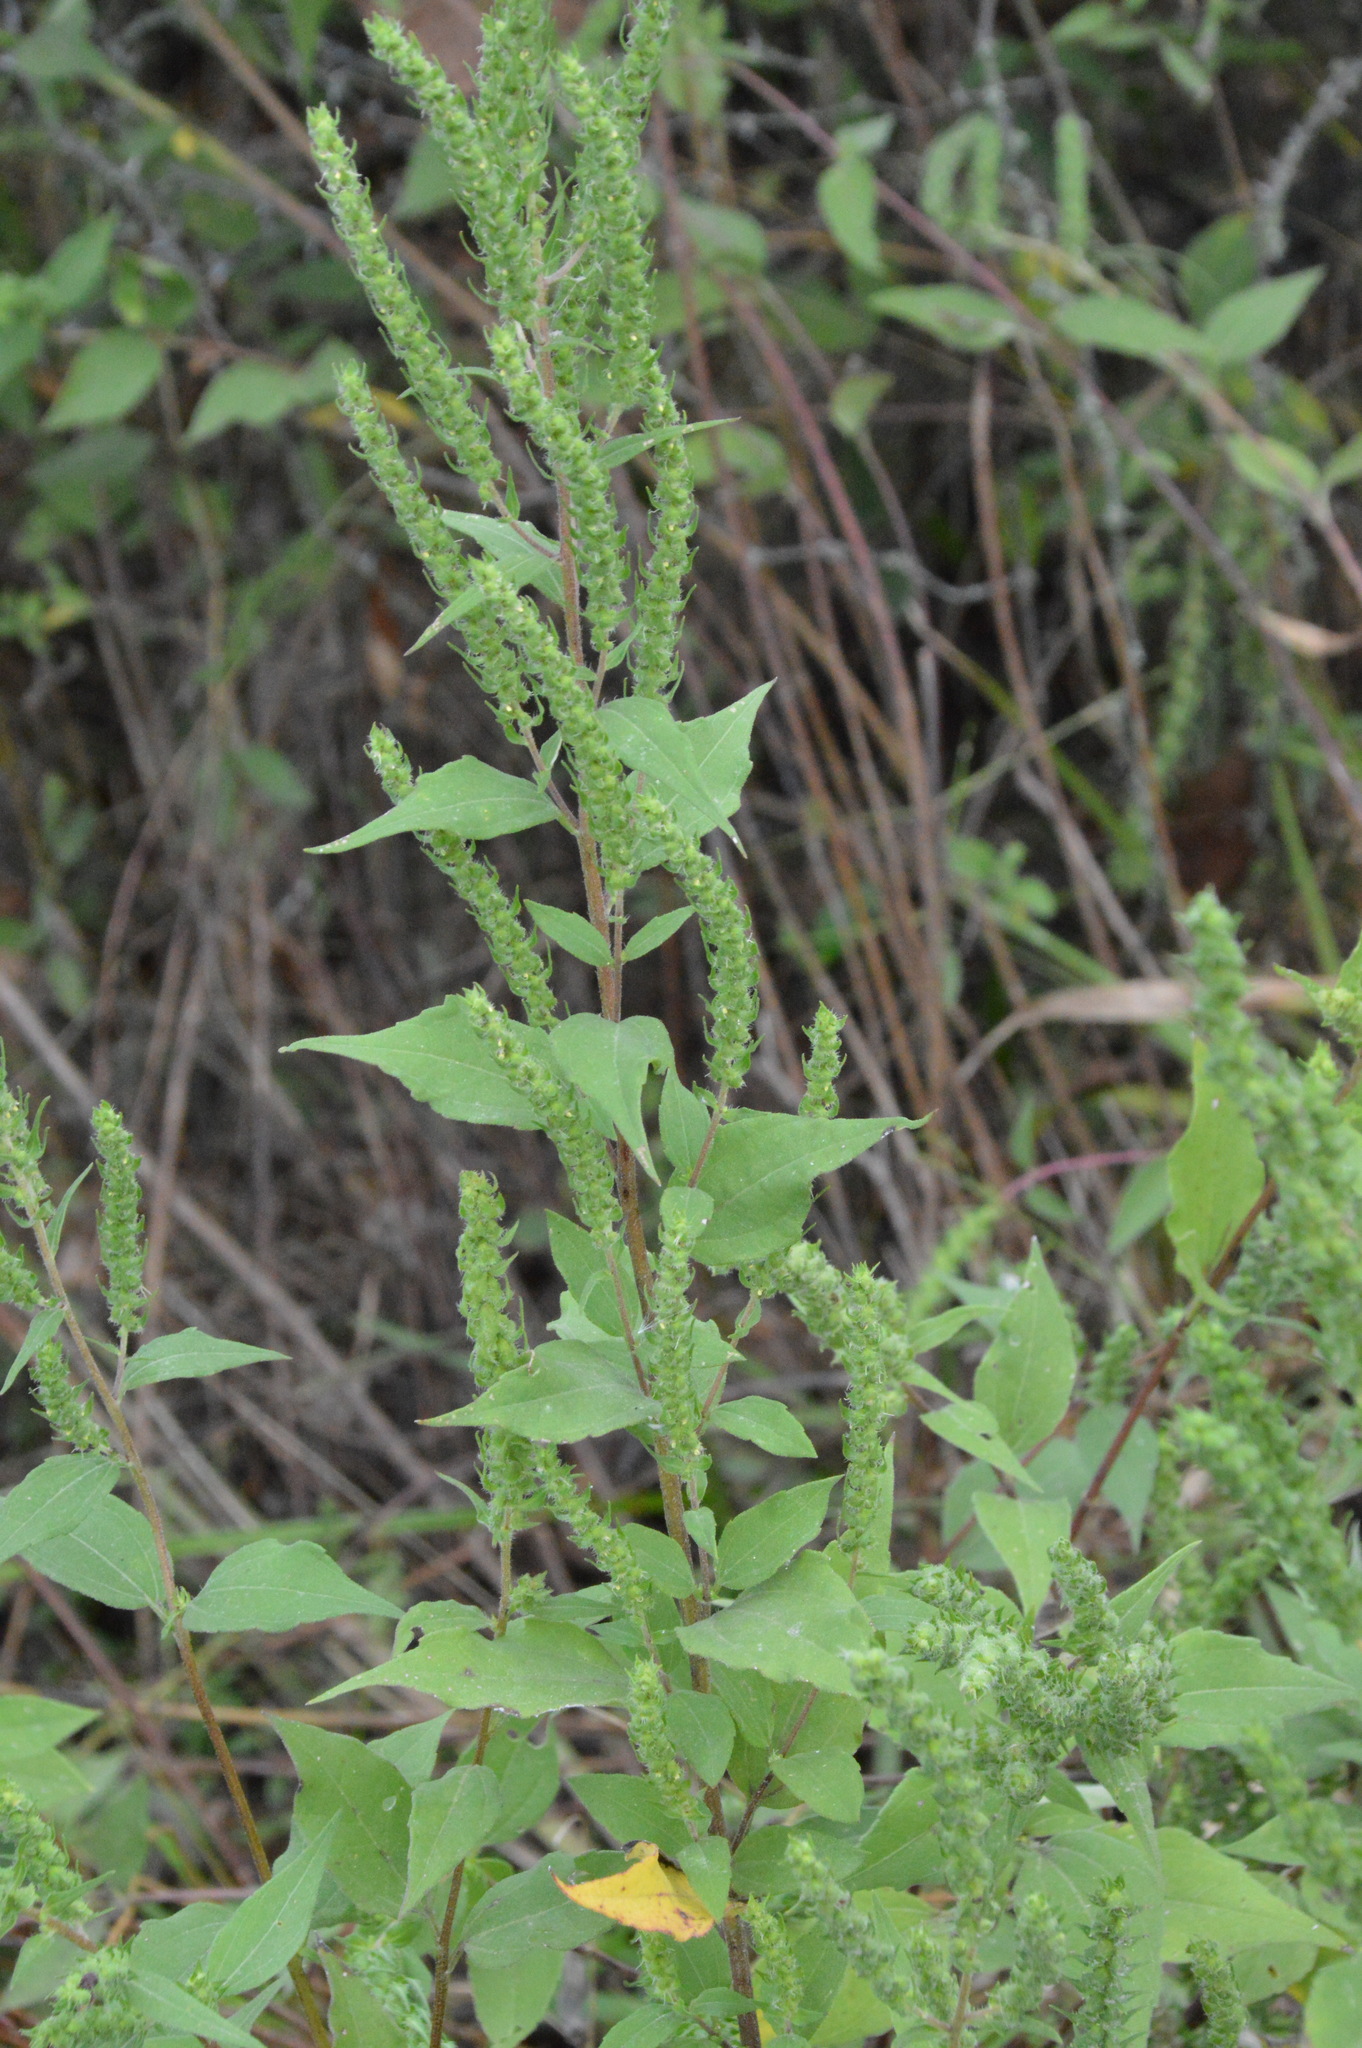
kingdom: Plantae
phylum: Tracheophyta
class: Magnoliopsida
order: Asterales
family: Asteraceae
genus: Iva
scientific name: Iva annua
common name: Marsh-elder
